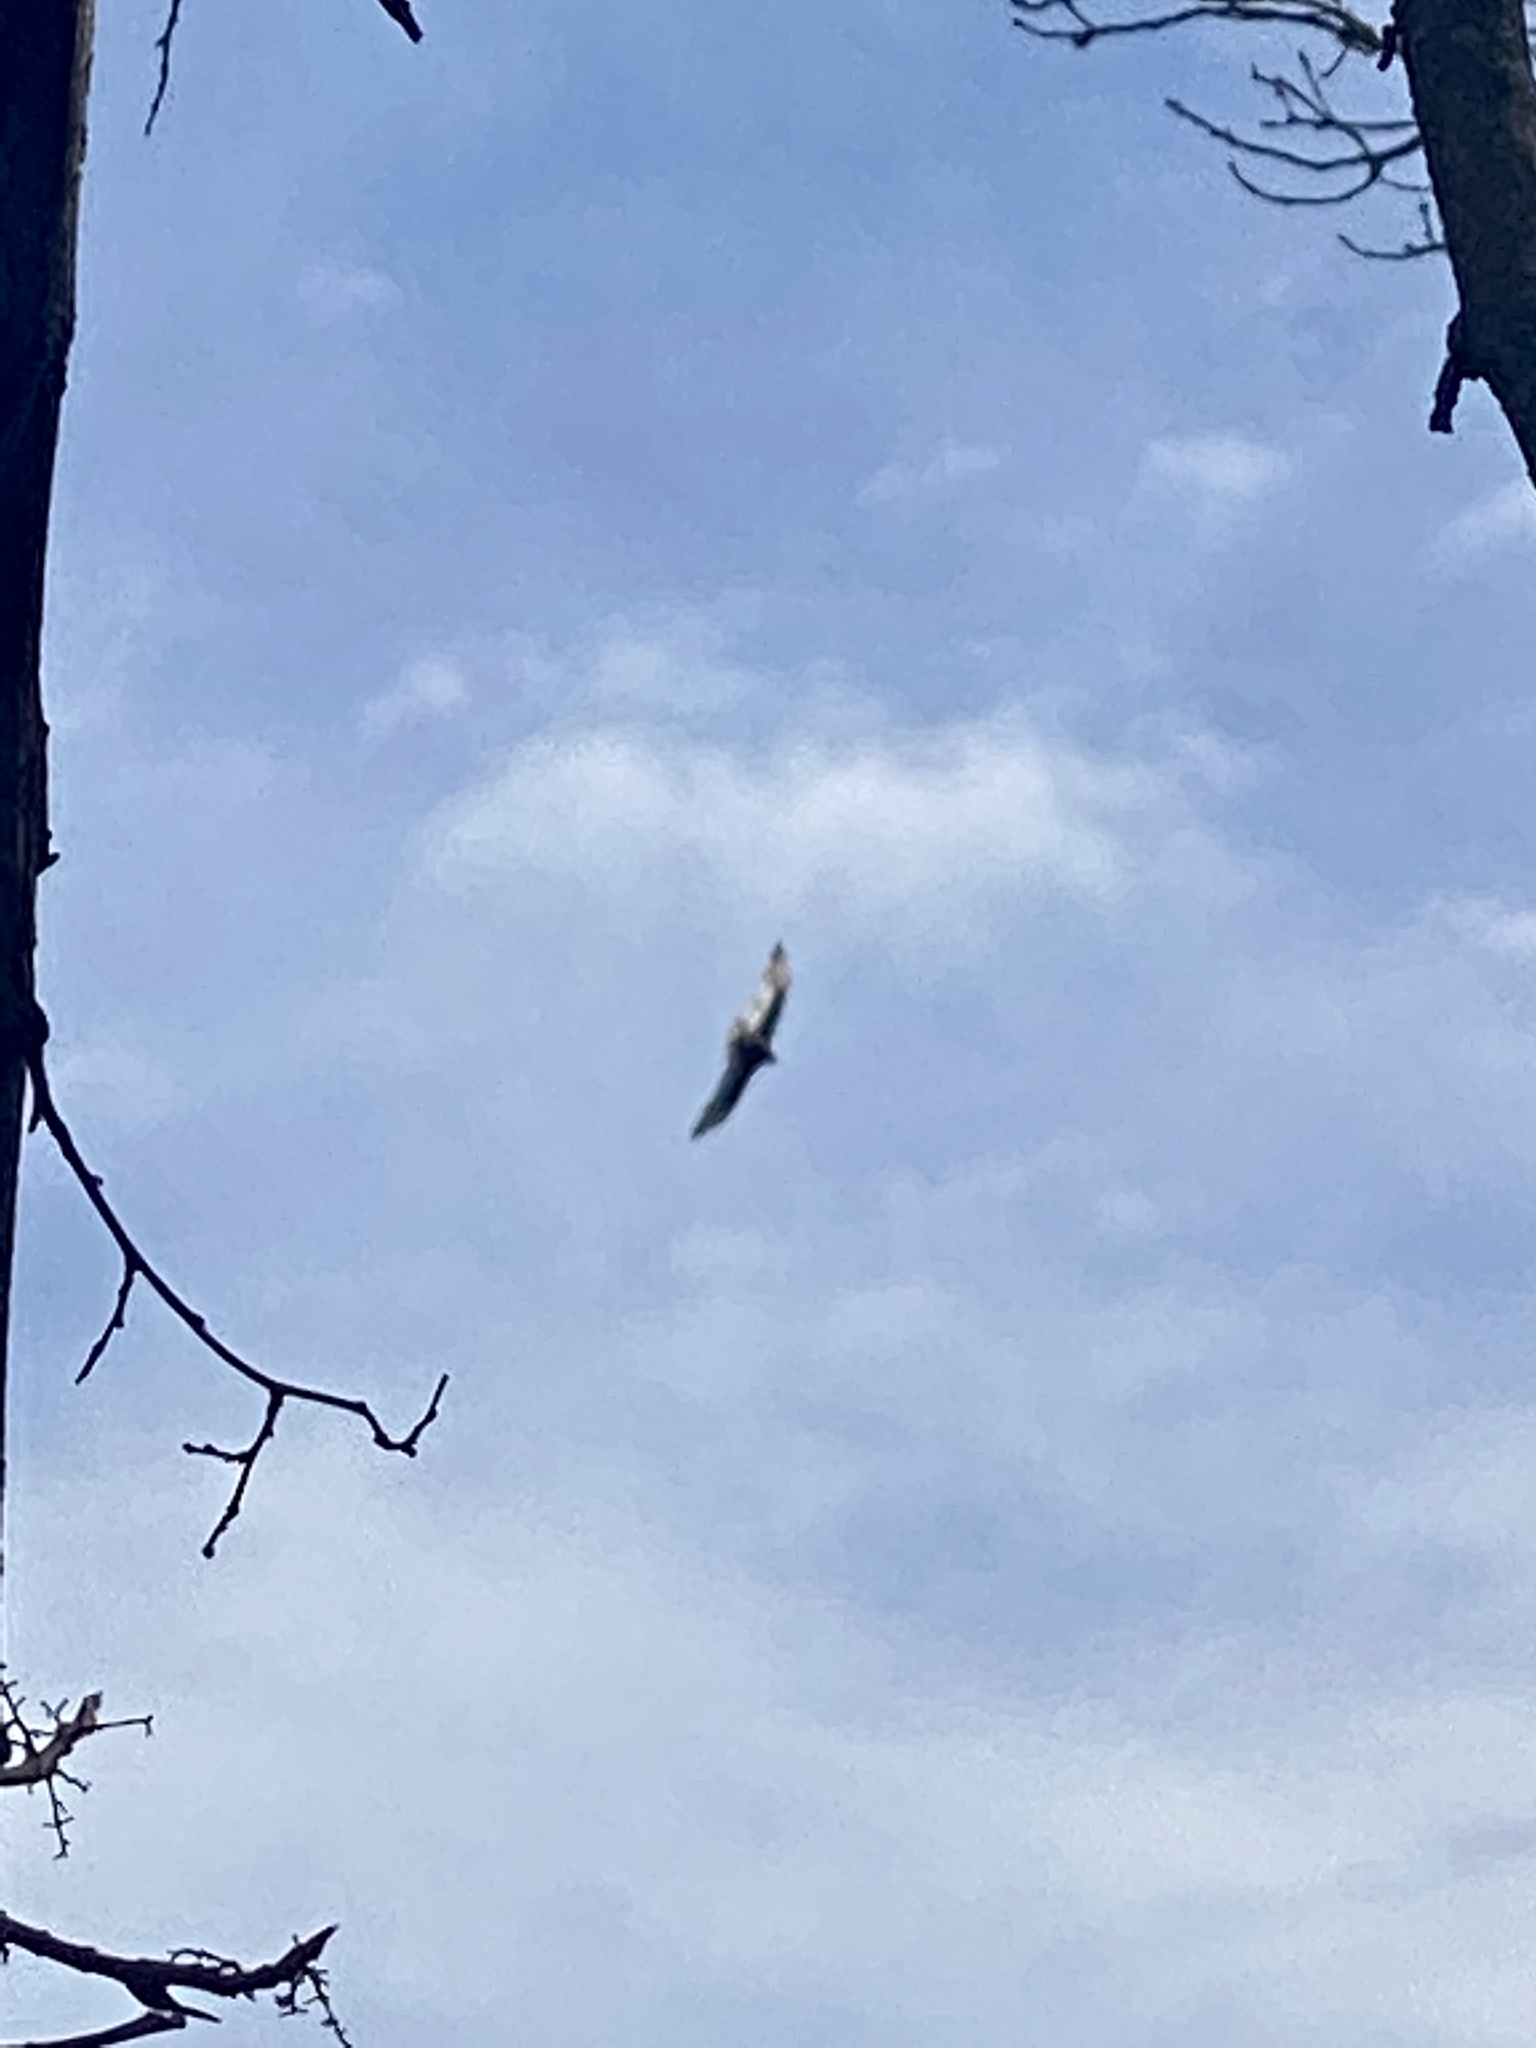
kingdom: Animalia
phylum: Chordata
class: Aves
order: Accipitriformes
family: Cathartidae
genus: Cathartes
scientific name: Cathartes aura
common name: Turkey vulture
